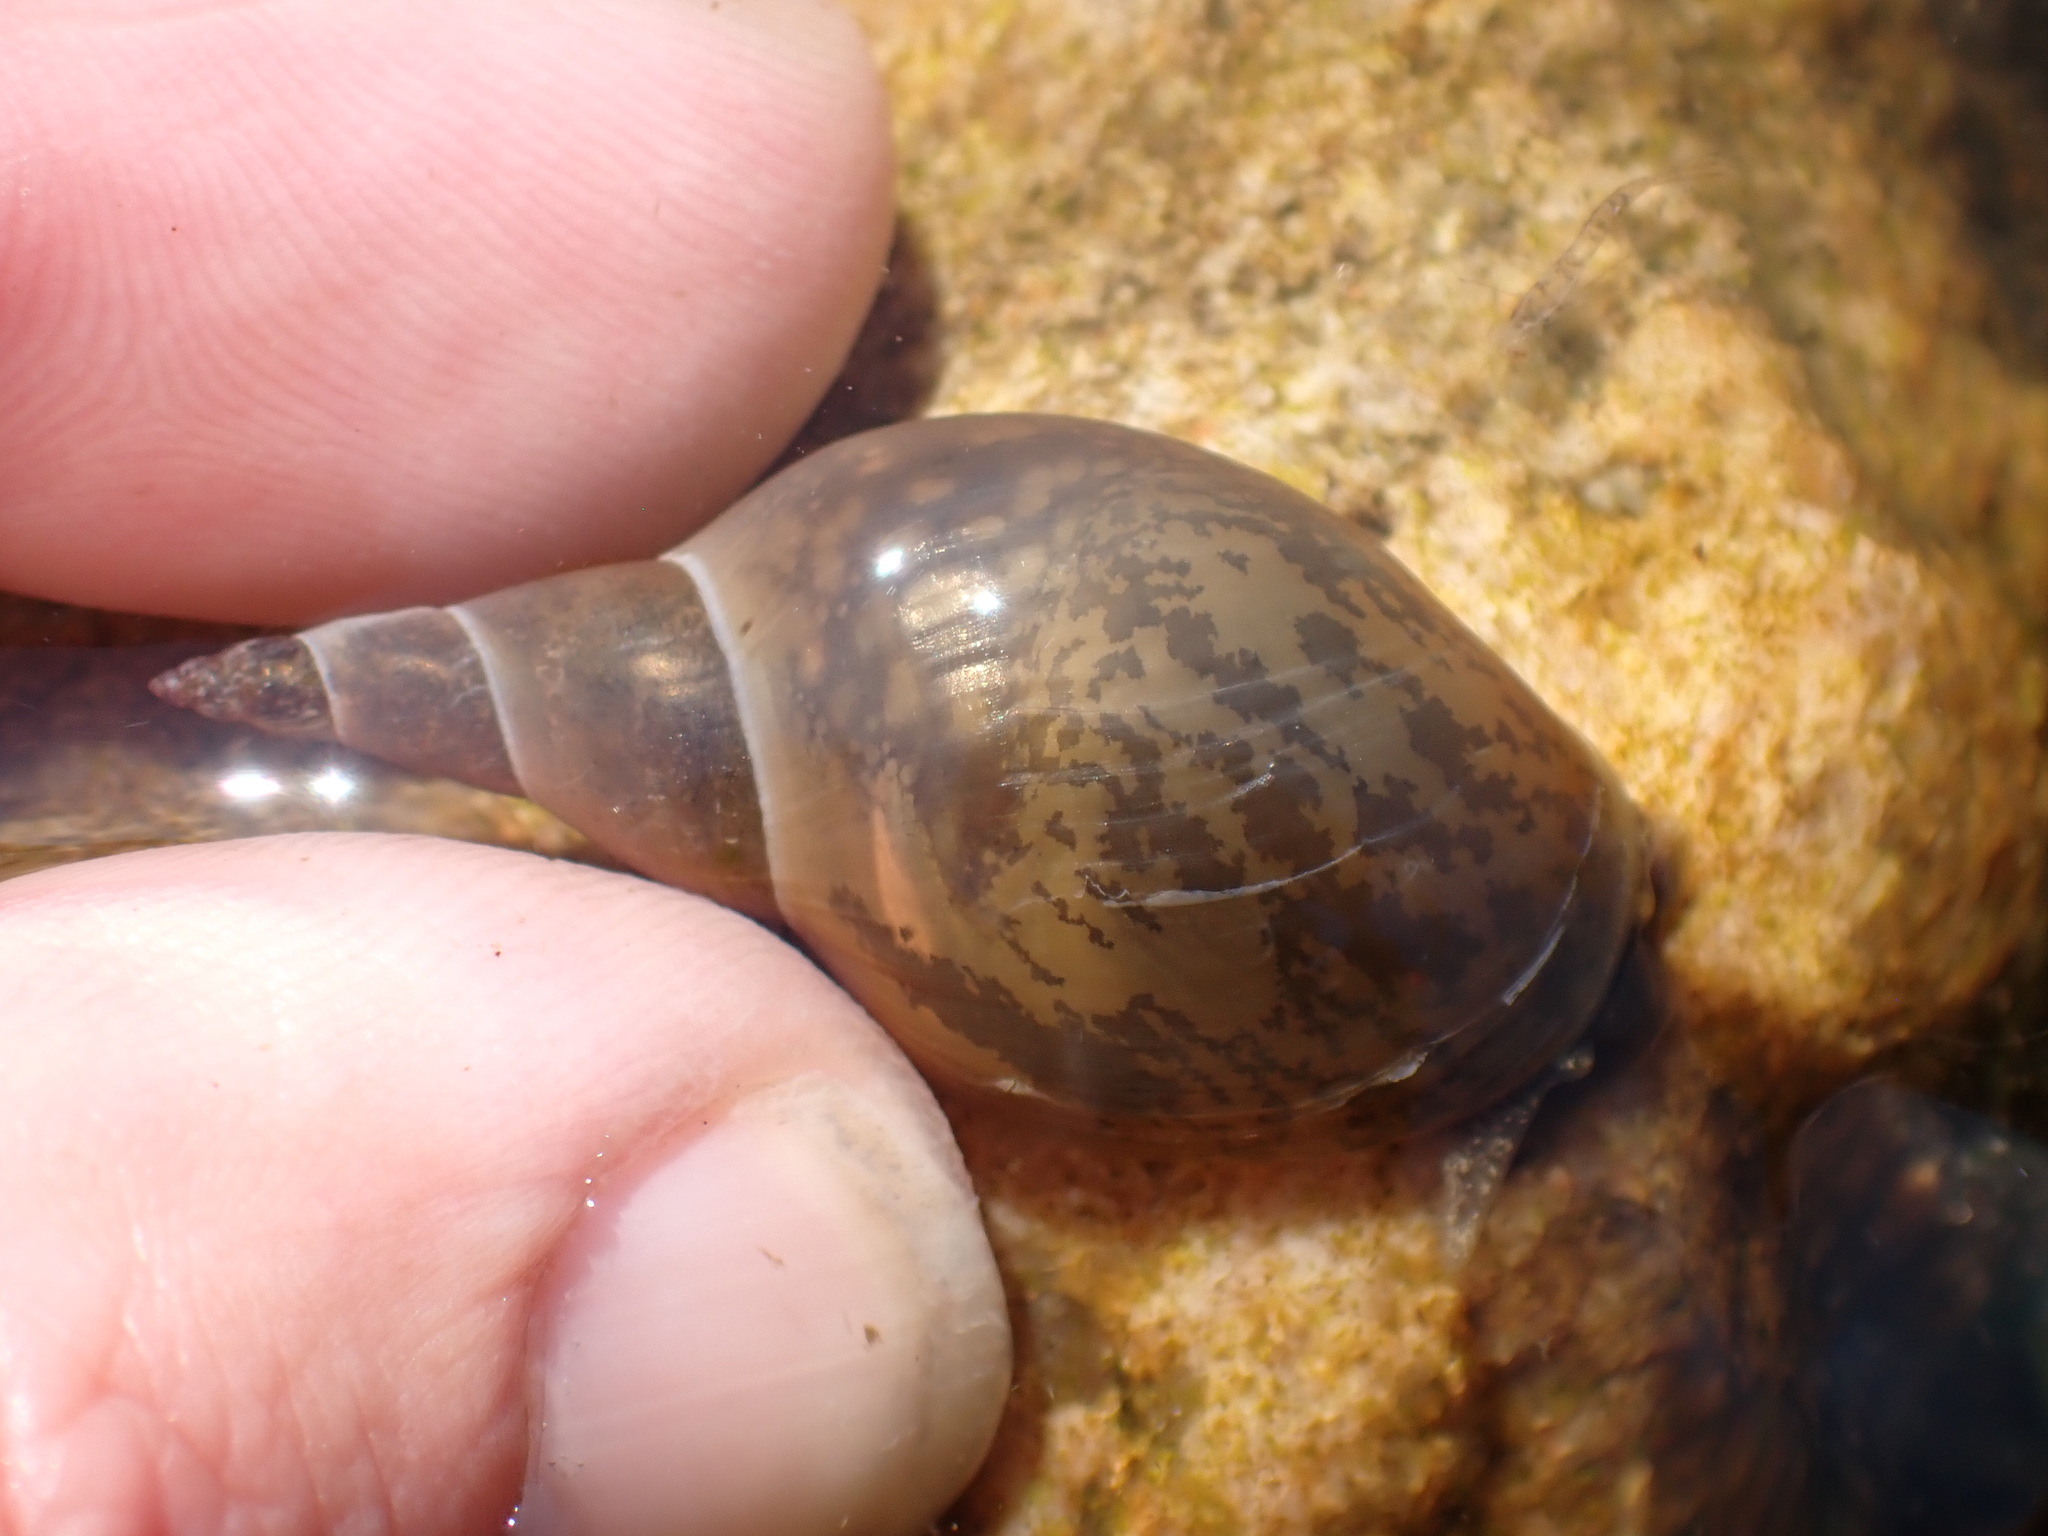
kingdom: Animalia
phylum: Mollusca
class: Gastropoda
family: Lymnaeidae
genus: Lymnaea
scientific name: Lymnaea stagnalis
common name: Great pond snail
